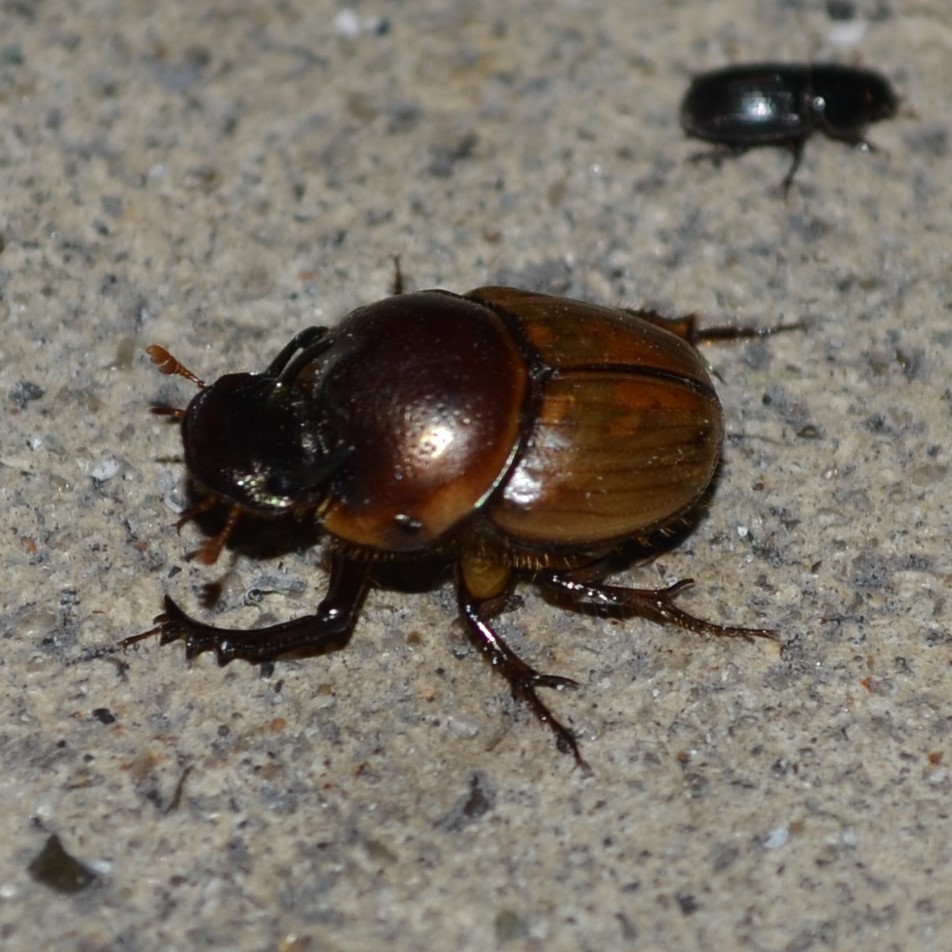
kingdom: Animalia
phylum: Arthropoda
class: Insecta
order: Coleoptera
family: Scarabaeidae
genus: Digitonthophagus
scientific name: Digitonthophagus gazella
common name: Brown dung beetle
